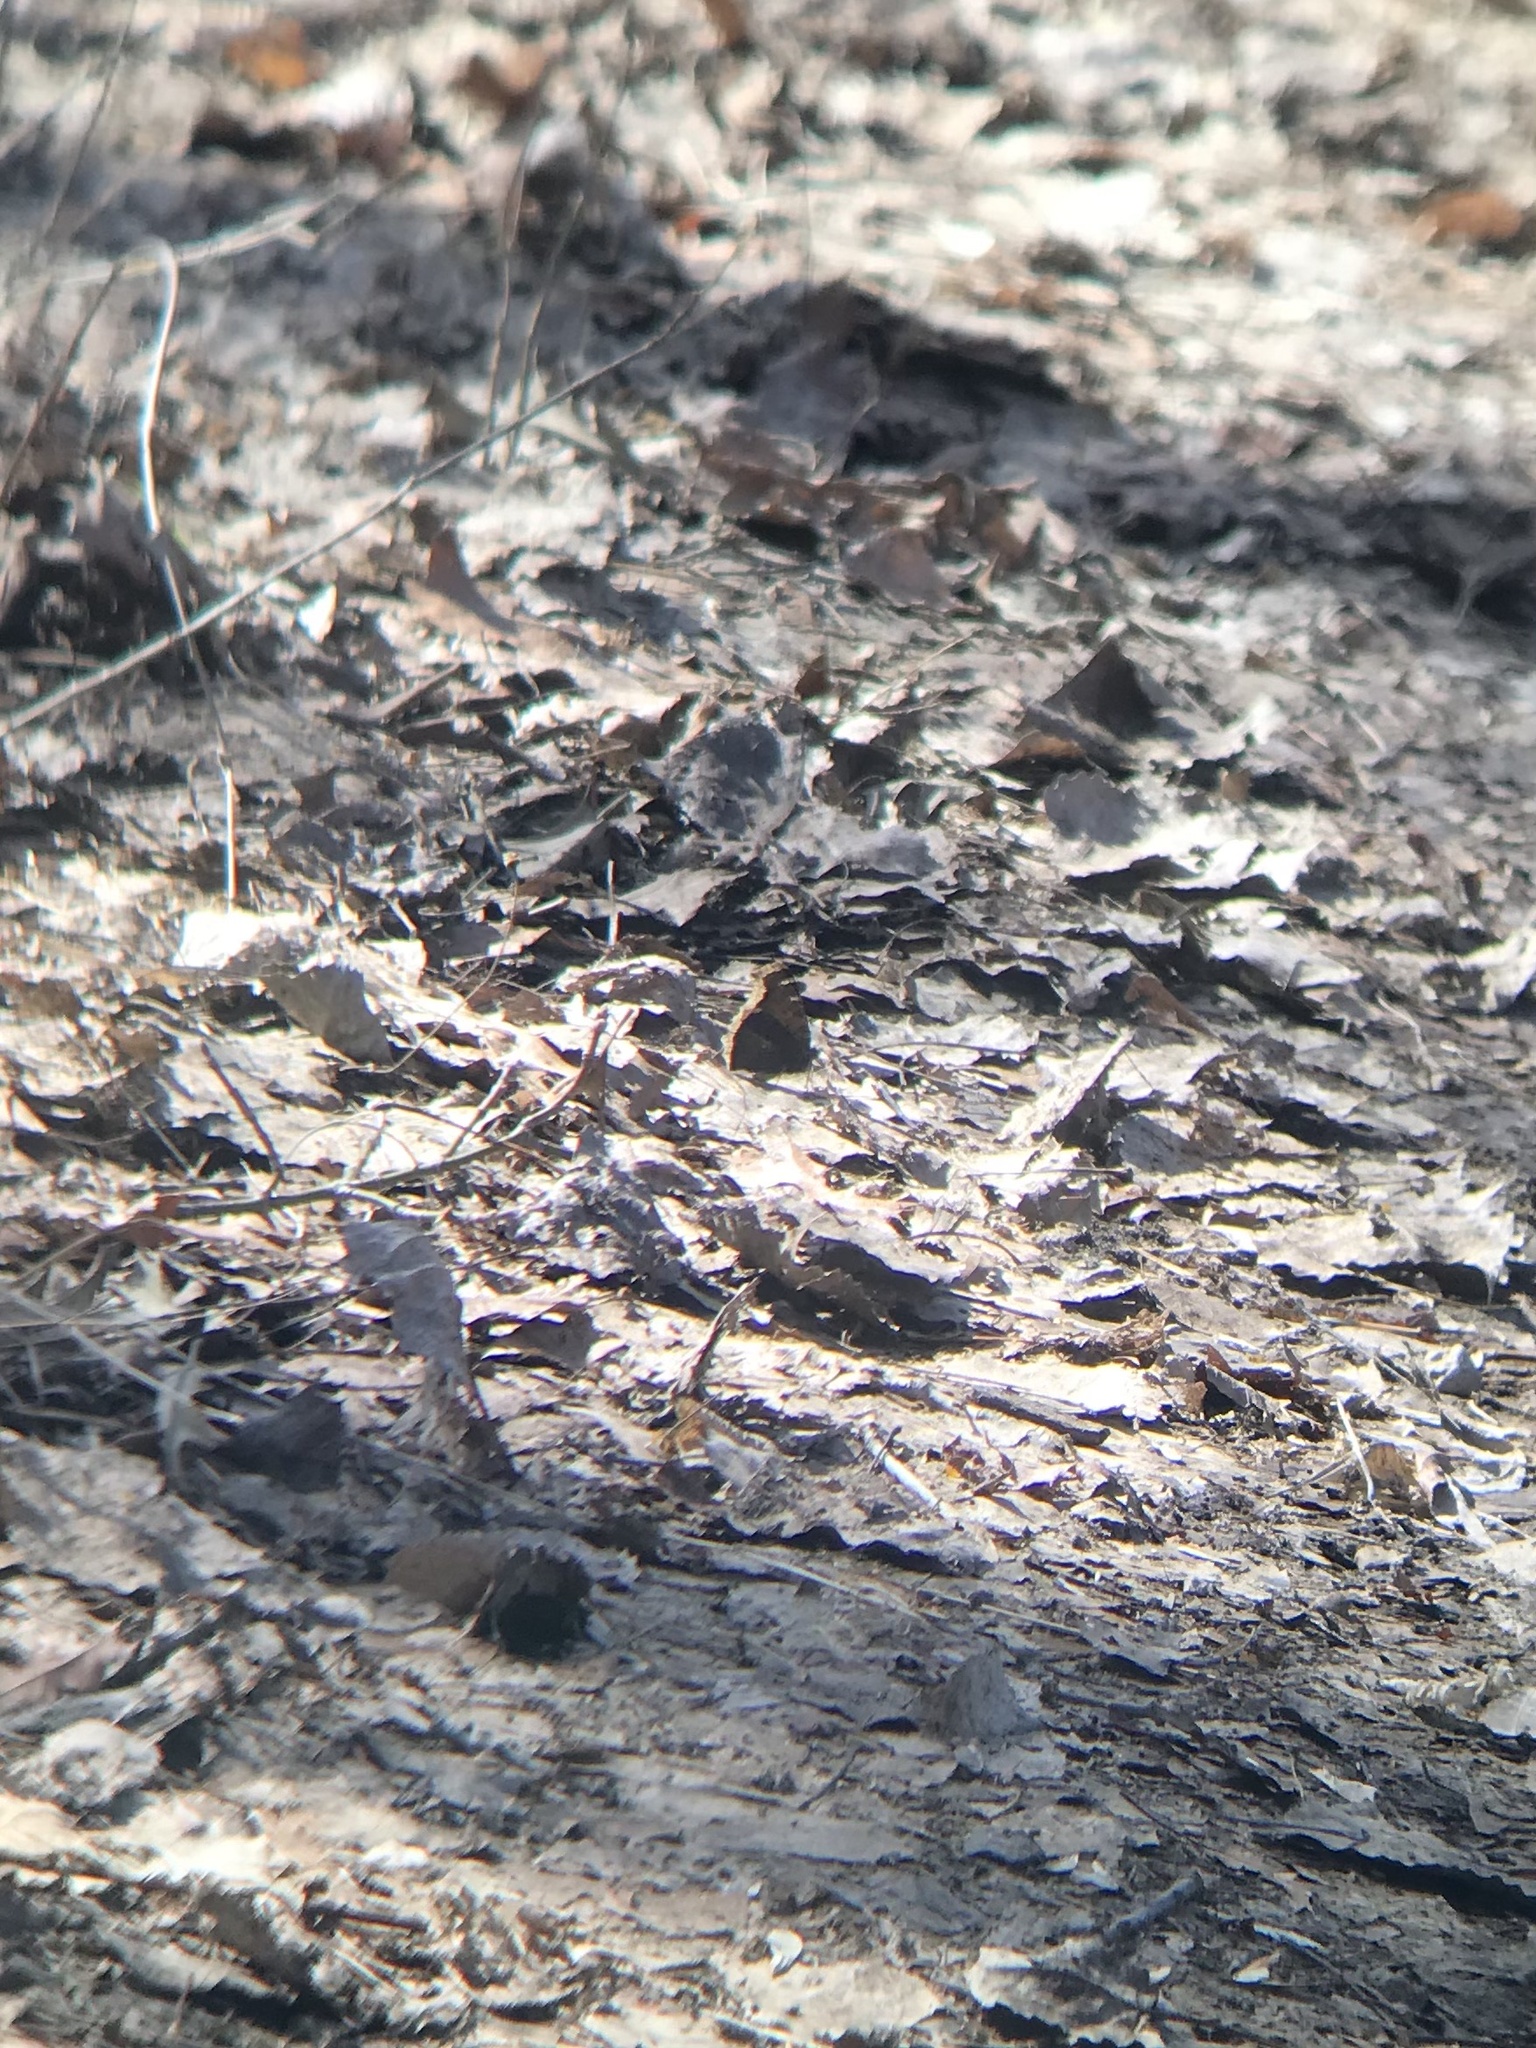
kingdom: Animalia
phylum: Arthropoda
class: Insecta
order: Lepidoptera
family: Nymphalidae
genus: Nymphalis
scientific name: Nymphalis antiopa
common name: Camberwell beauty
